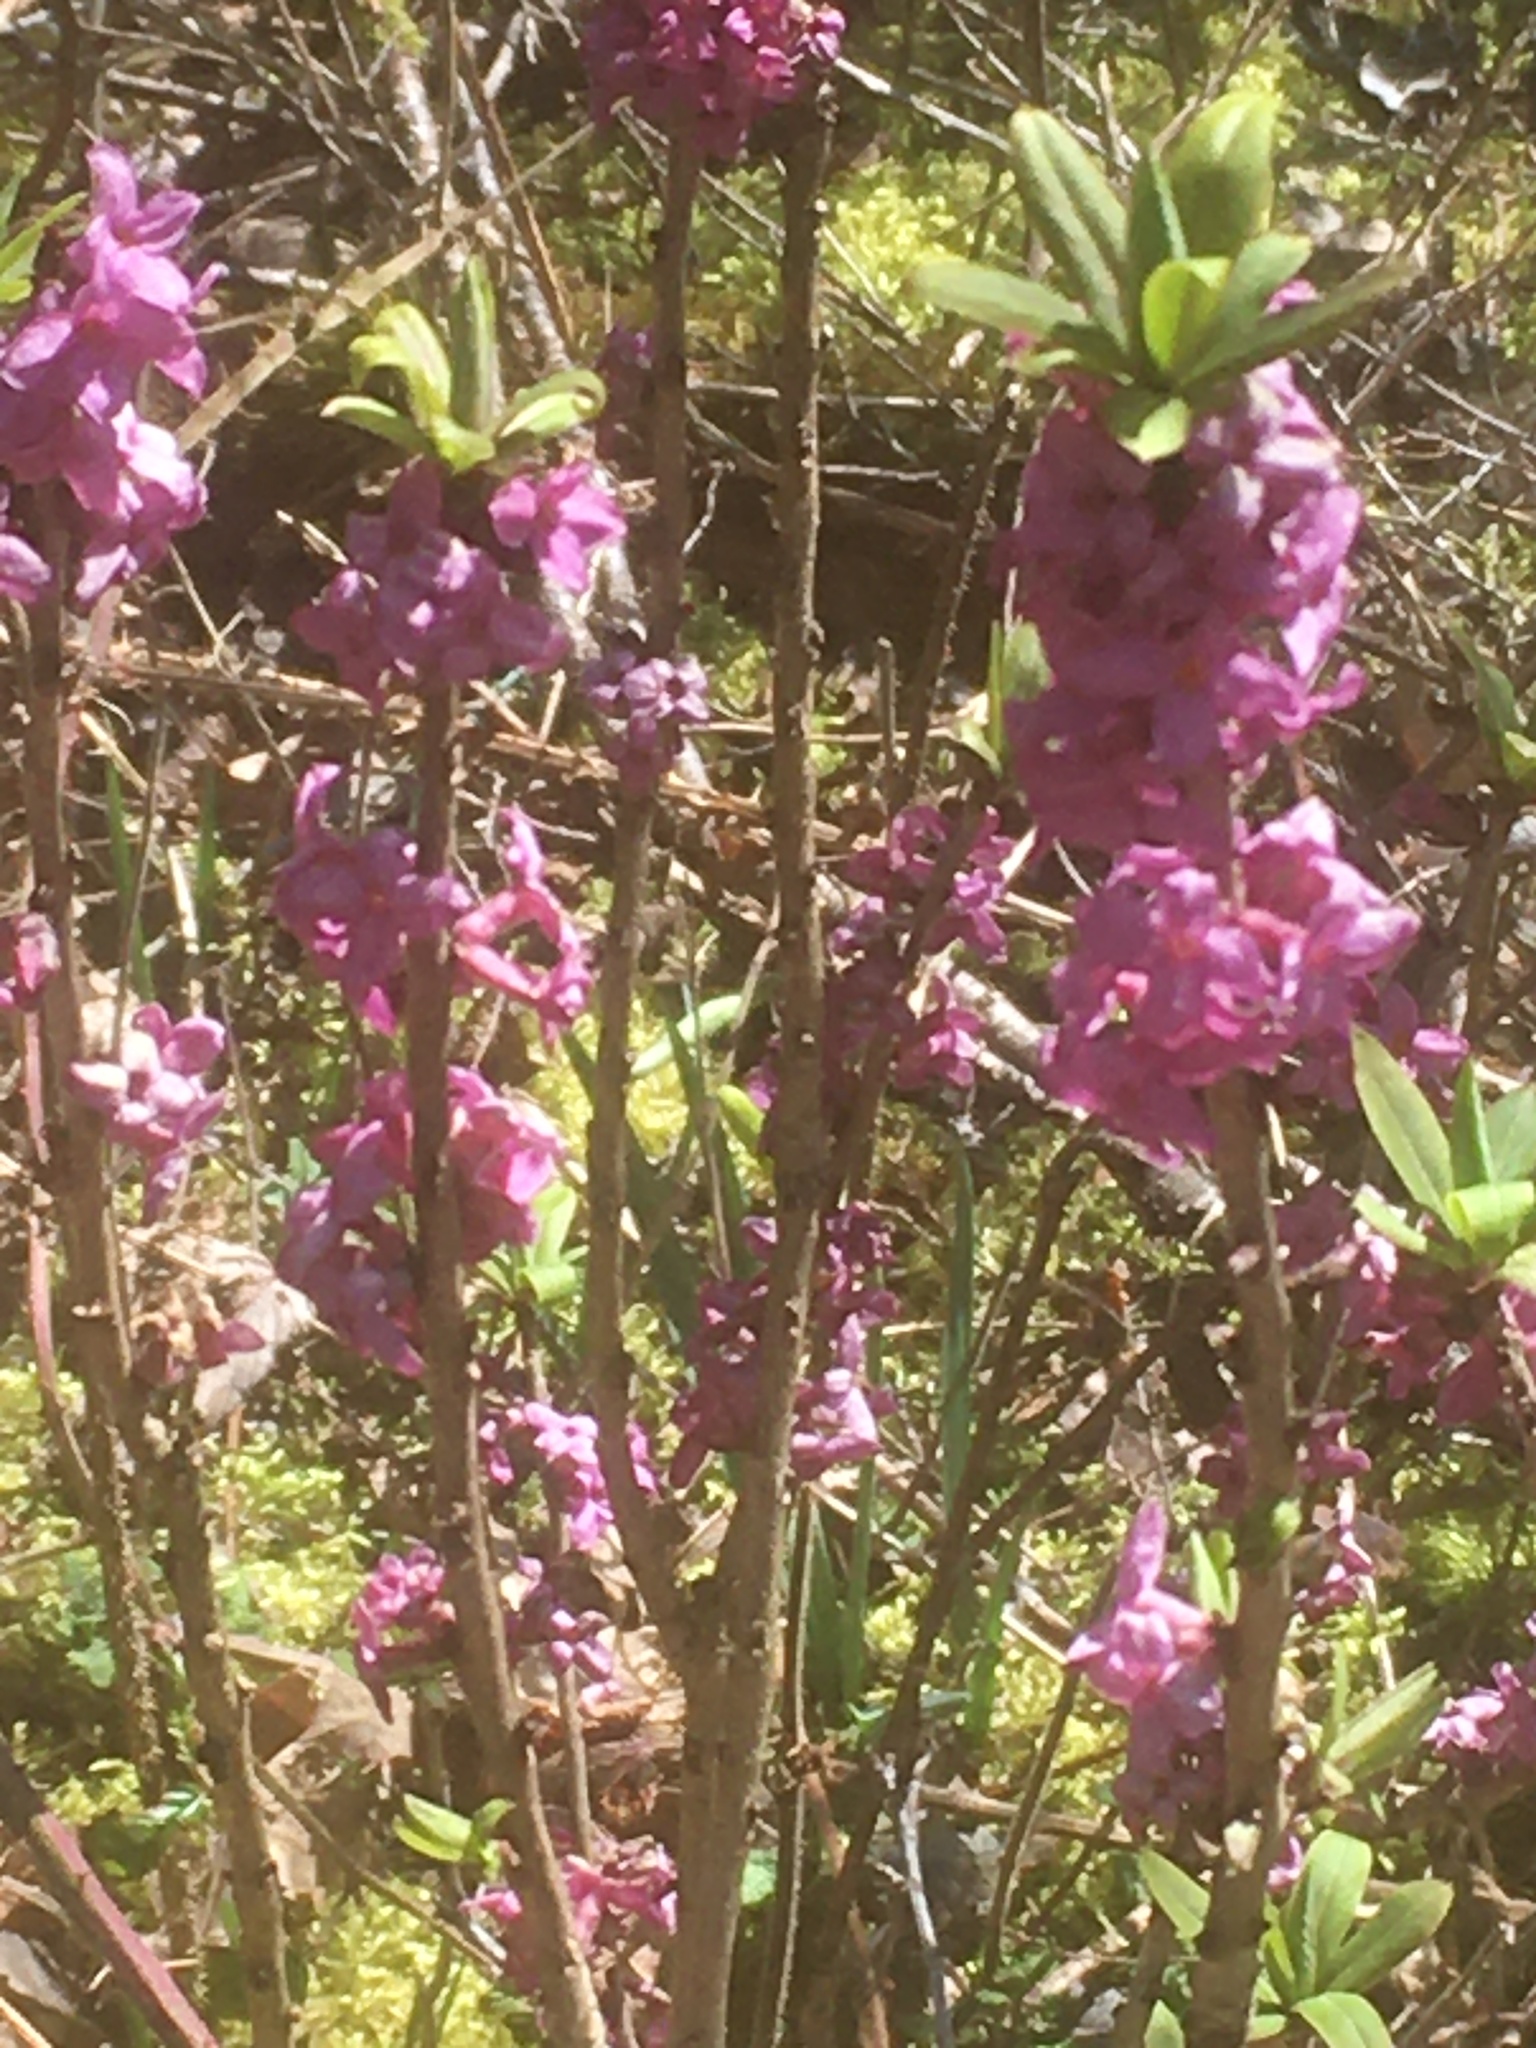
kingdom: Plantae
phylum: Tracheophyta
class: Magnoliopsida
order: Malvales
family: Thymelaeaceae
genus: Daphne
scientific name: Daphne mezereum
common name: Mezereon
